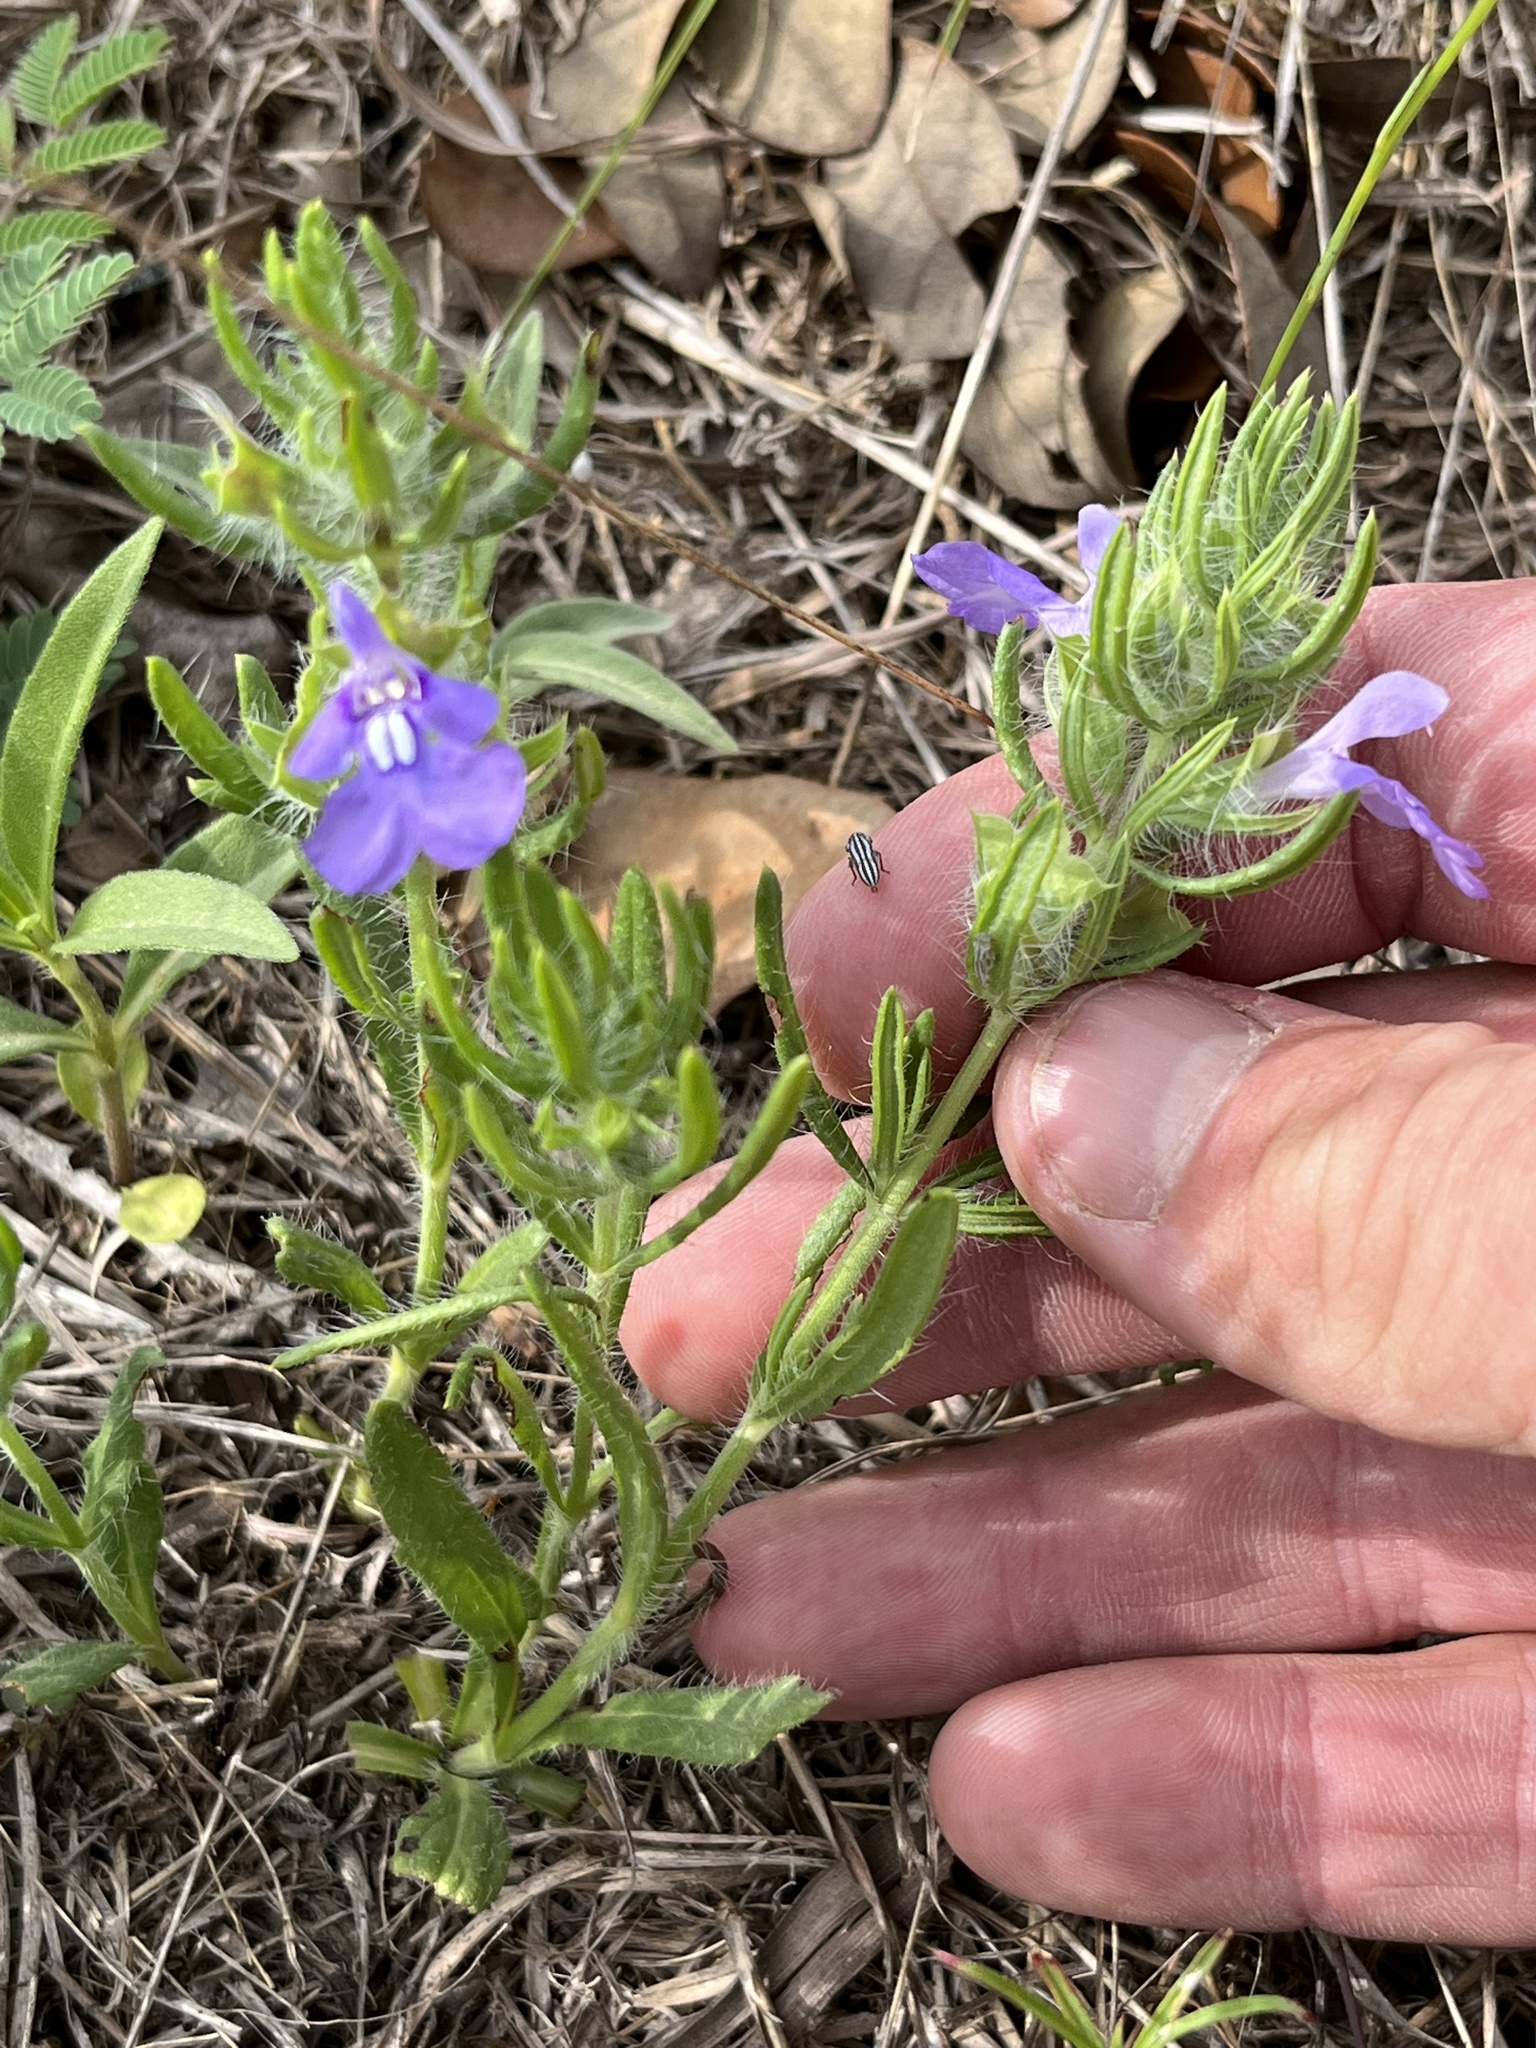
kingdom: Plantae
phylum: Tracheophyta
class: Magnoliopsida
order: Lamiales
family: Lamiaceae
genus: Salvia
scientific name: Salvia texana
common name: Texas sage
